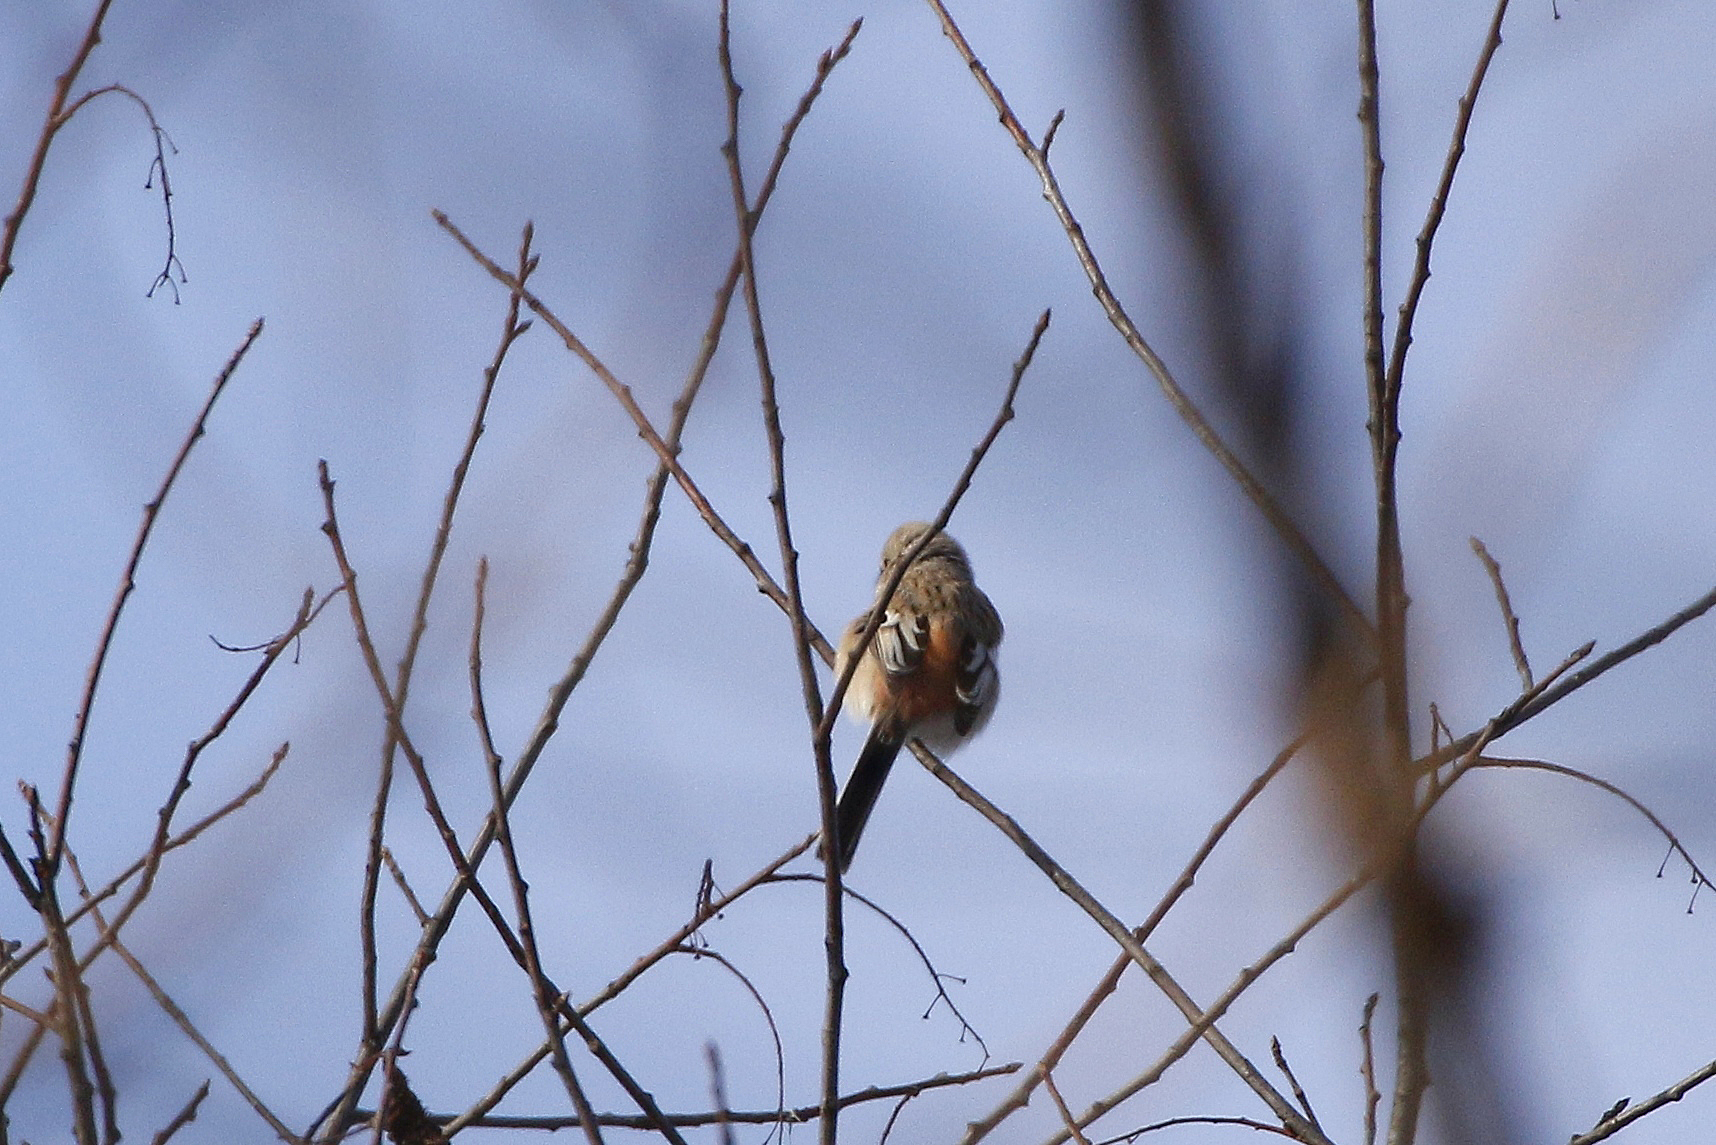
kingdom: Animalia
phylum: Chordata
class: Aves
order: Passeriformes
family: Fringillidae
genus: Carpodacus
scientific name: Carpodacus sibiricus
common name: Long-tailed rosefinch
